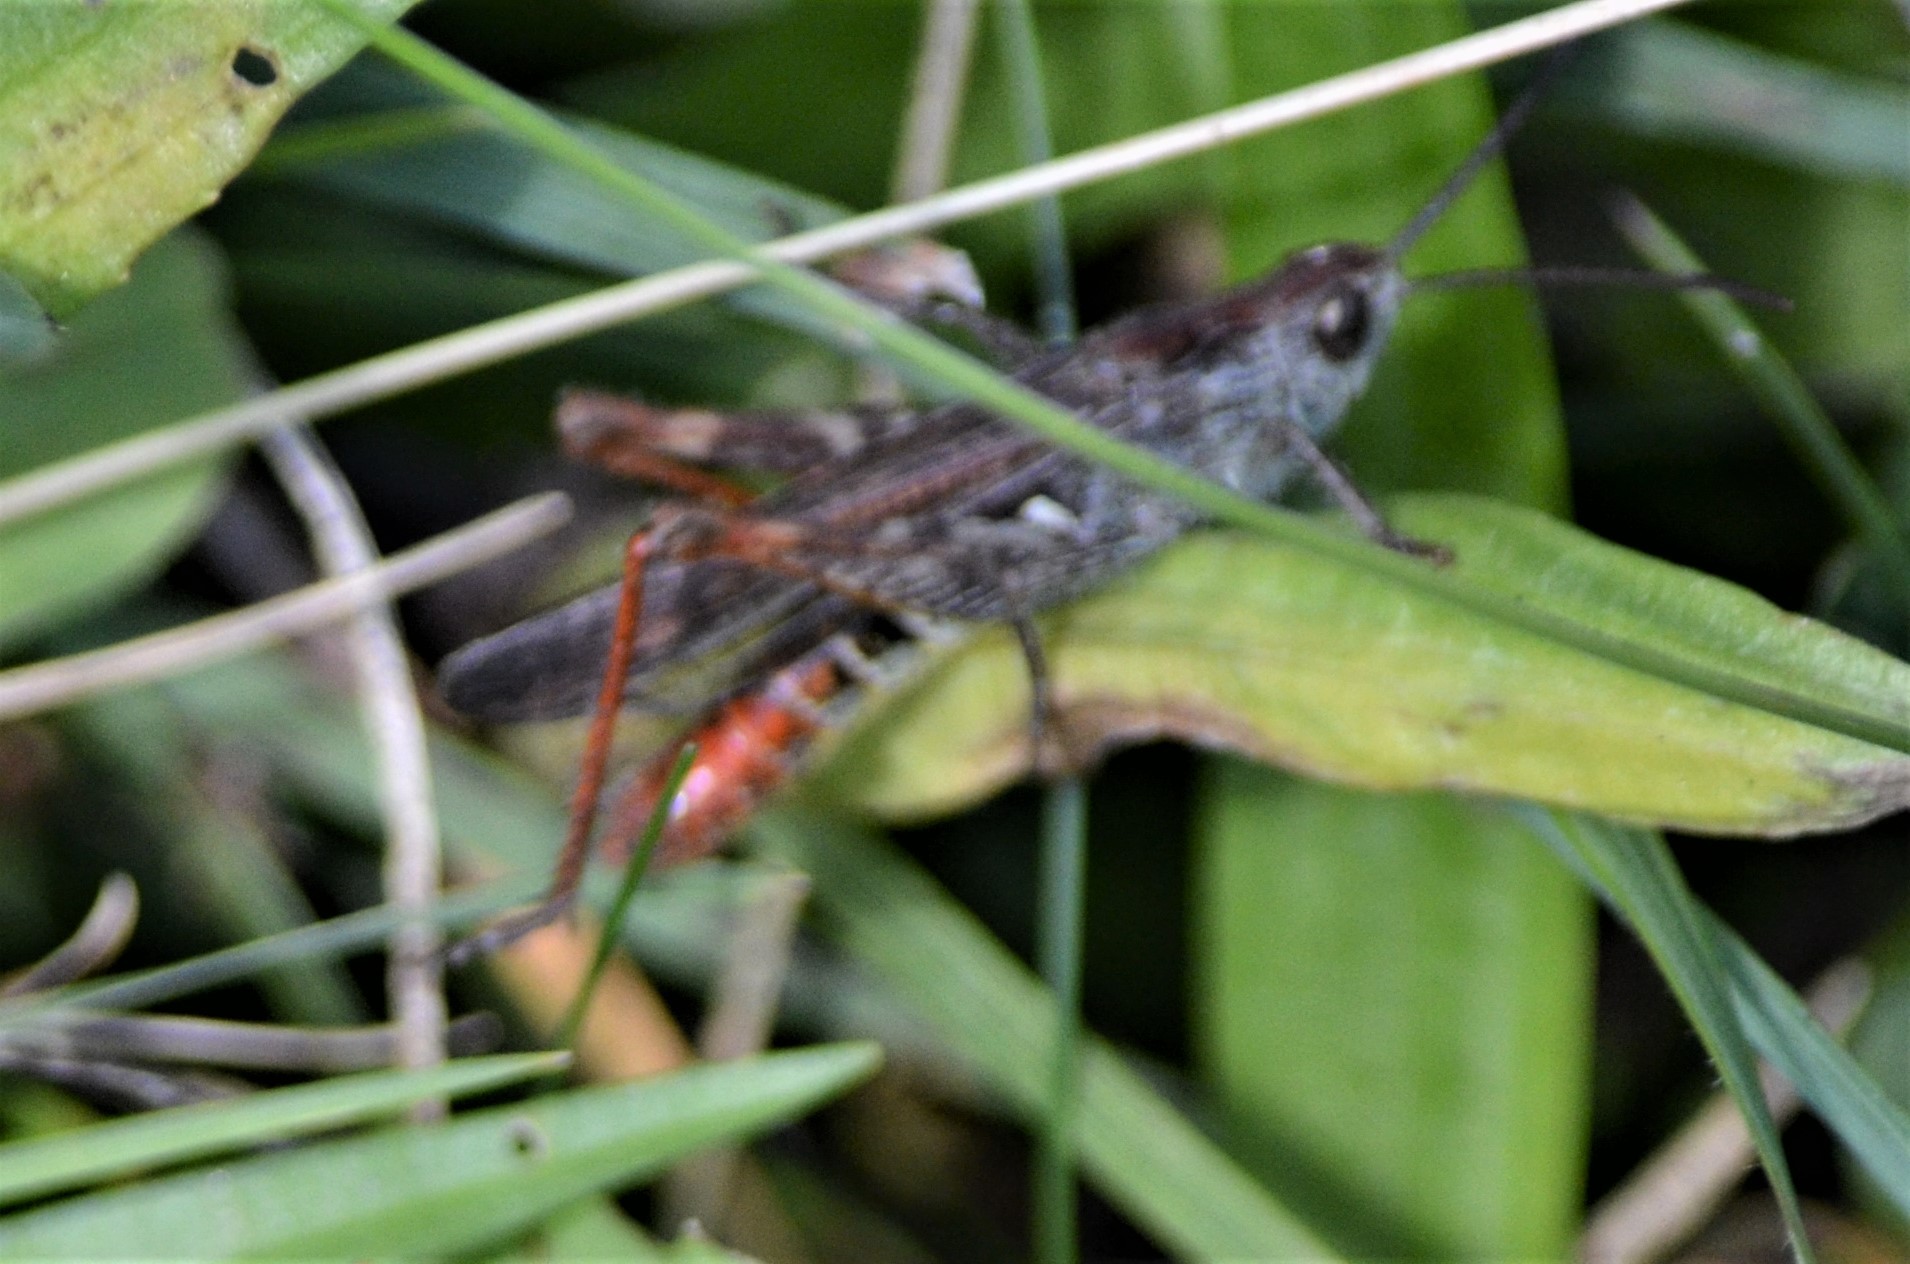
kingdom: Animalia
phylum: Arthropoda
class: Insecta
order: Orthoptera
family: Acrididae
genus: Chorthippus
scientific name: Chorthippus mollis
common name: Lesser field grasshopper
